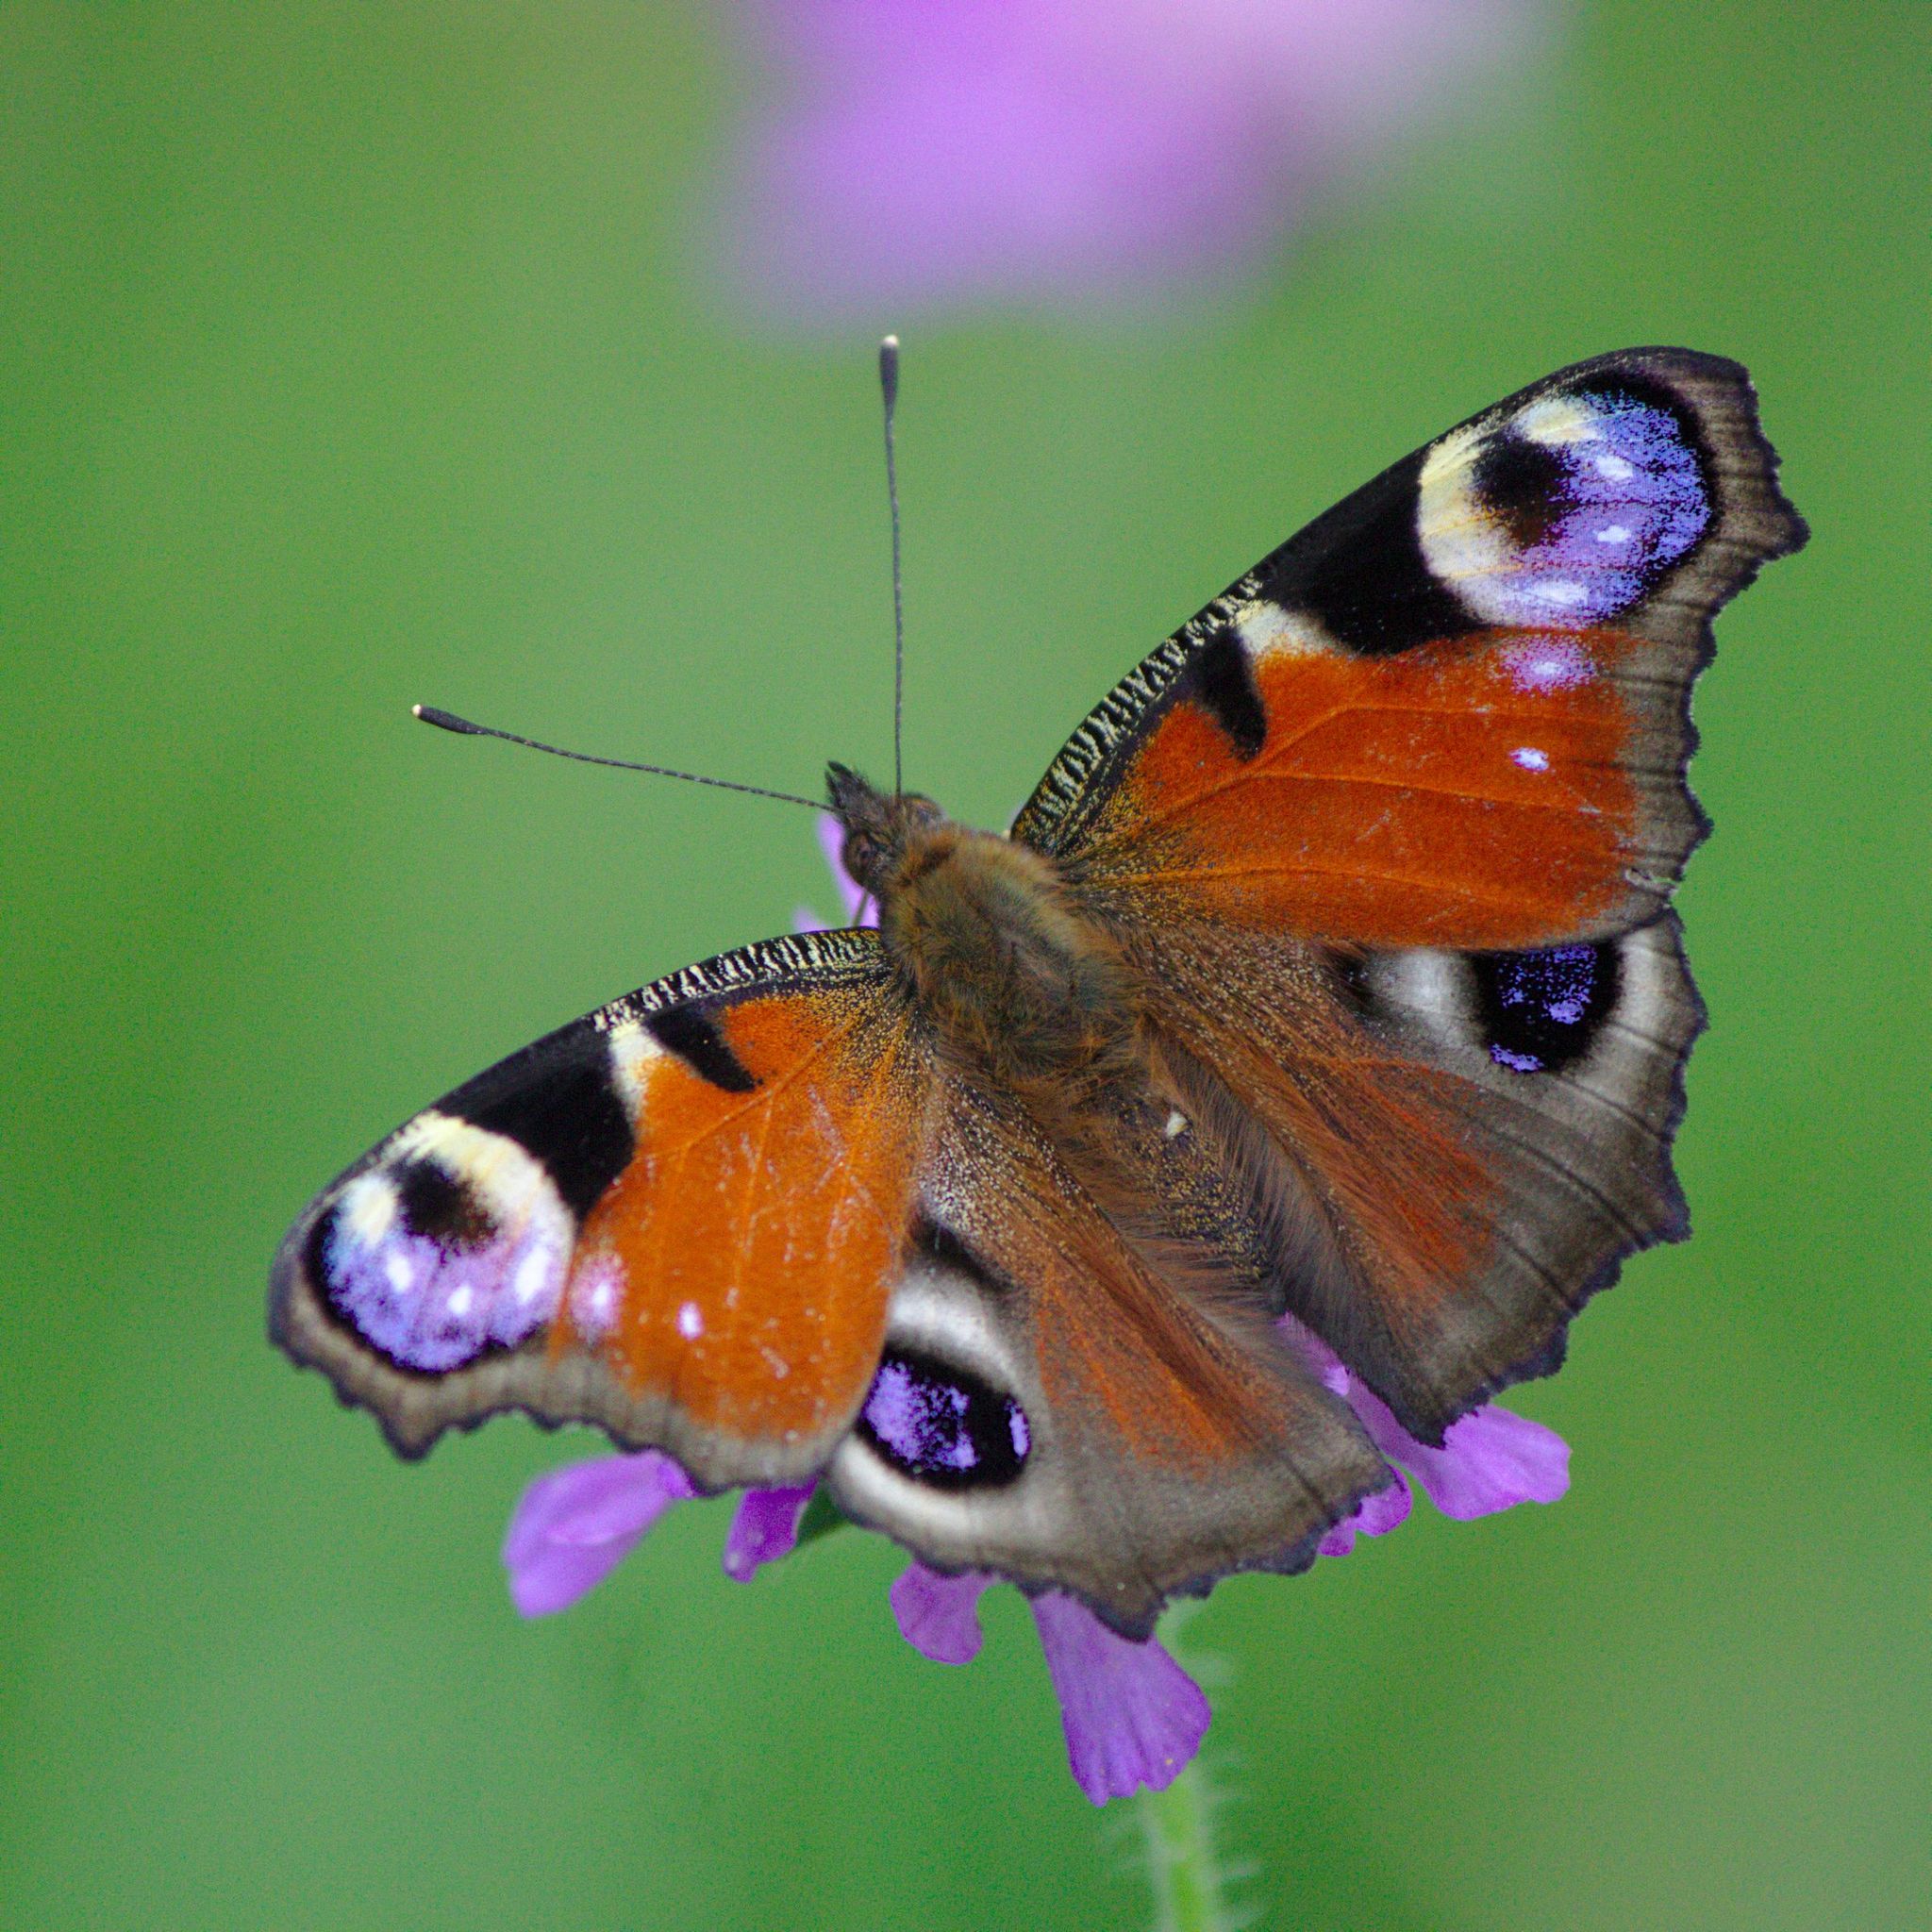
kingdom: Animalia
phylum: Arthropoda
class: Insecta
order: Lepidoptera
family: Nymphalidae
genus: Aglais
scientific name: Aglais io
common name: Peacock
